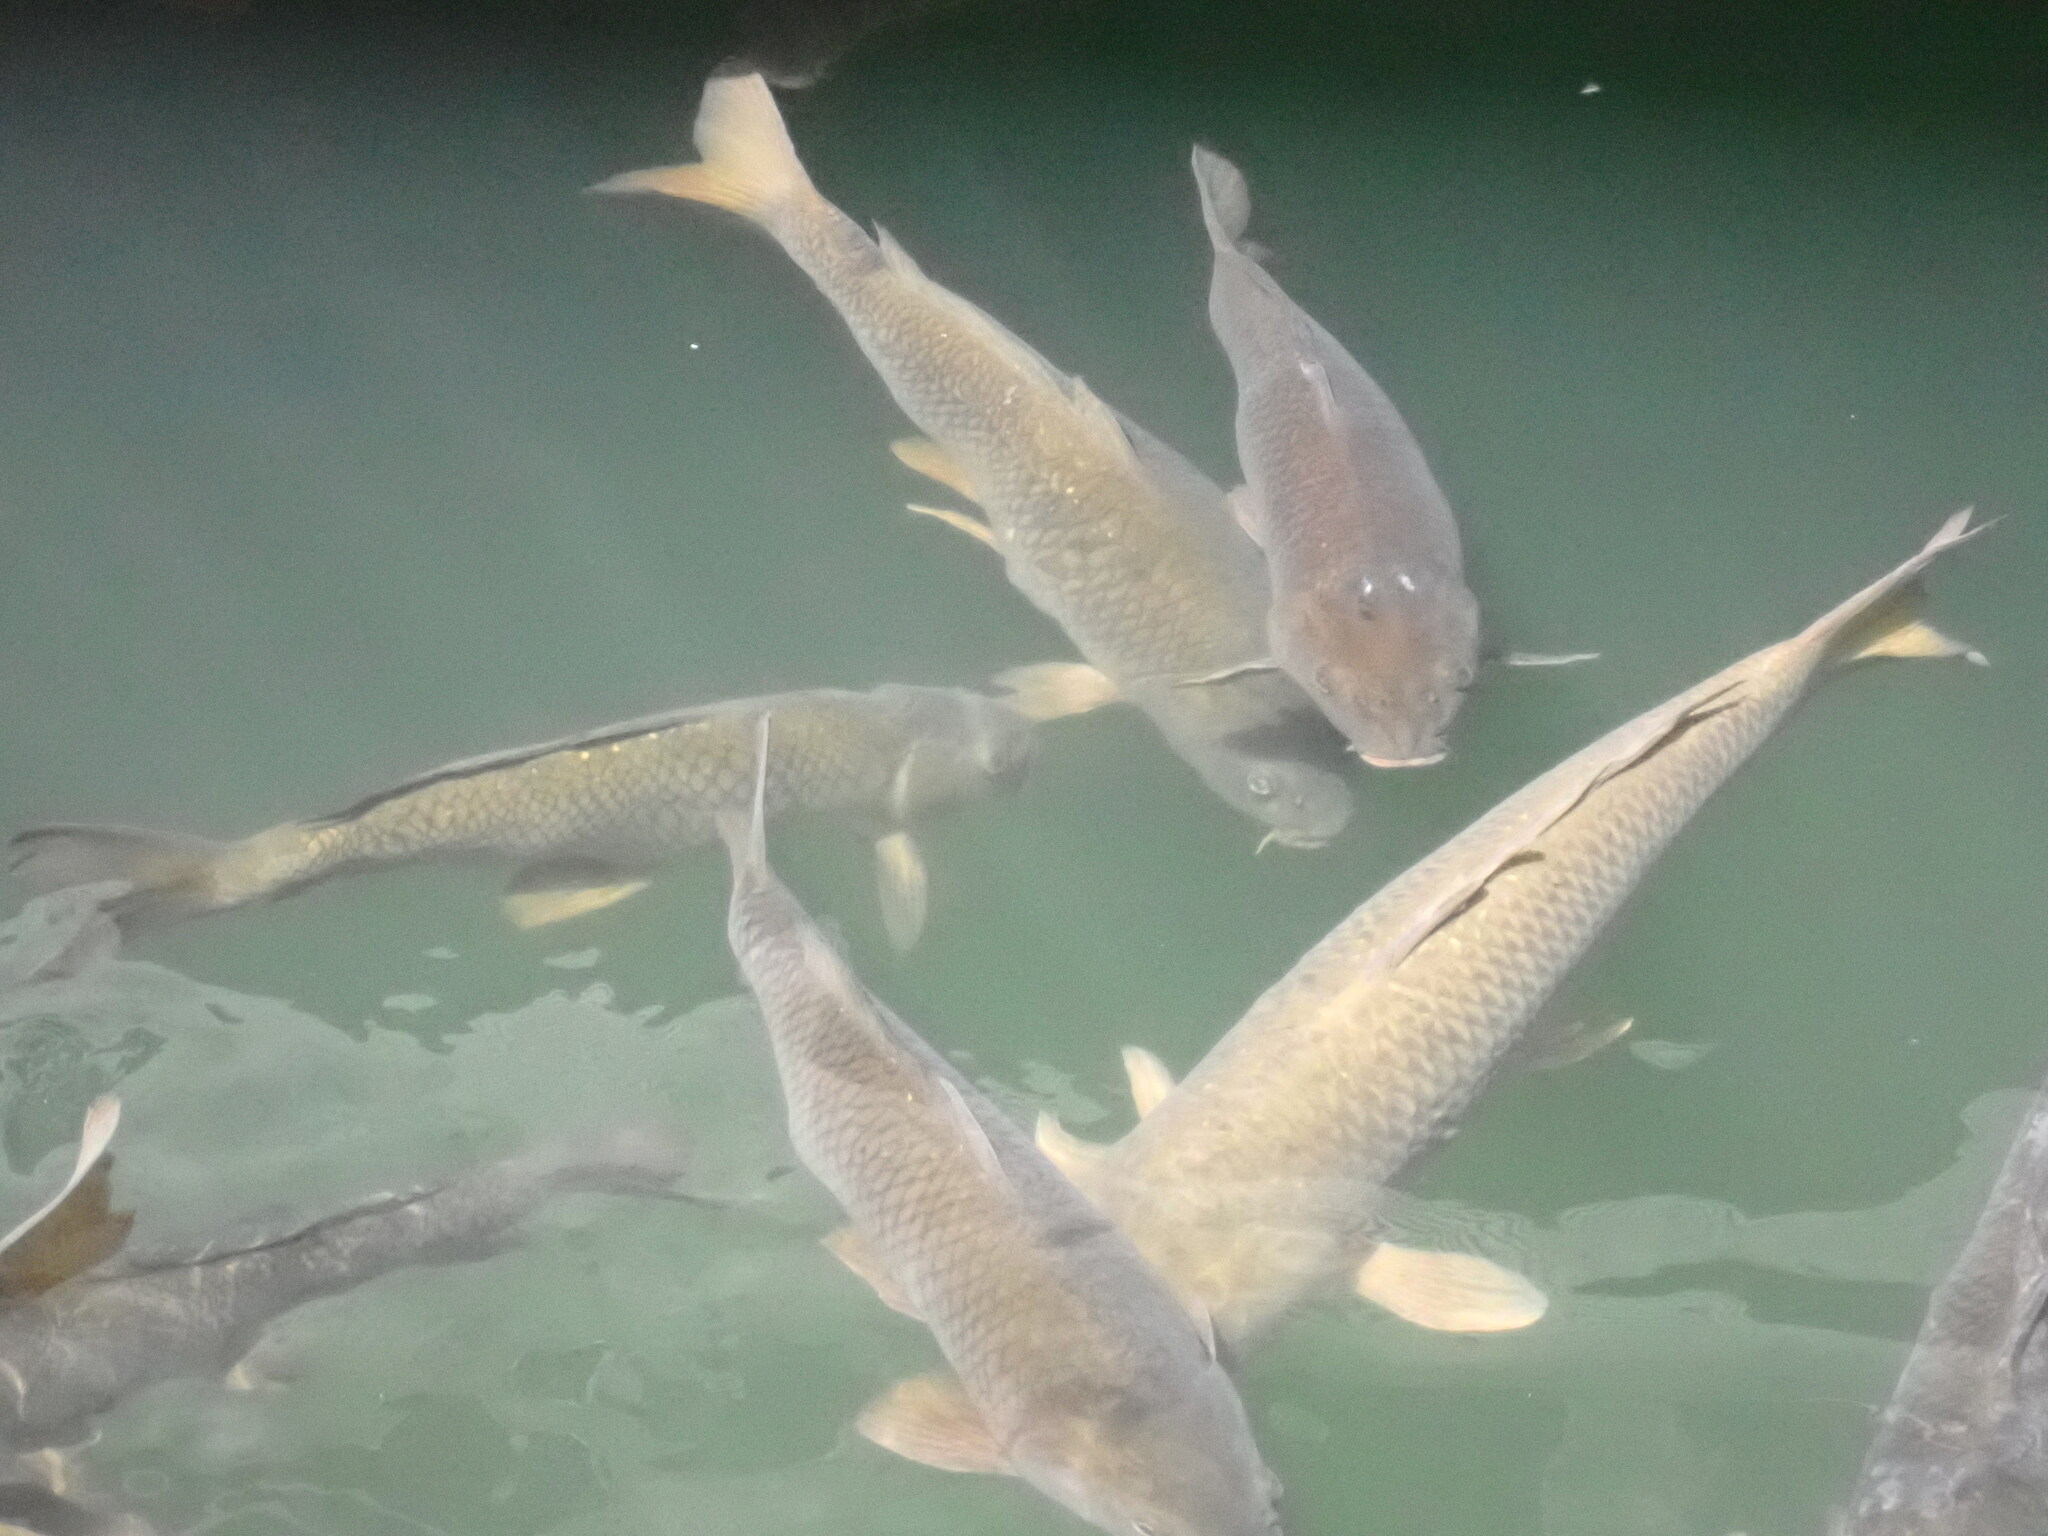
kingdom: Animalia
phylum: Chordata
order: Cypriniformes
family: Cyprinidae
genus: Cyprinus
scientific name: Cyprinus carpio
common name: Common carp
